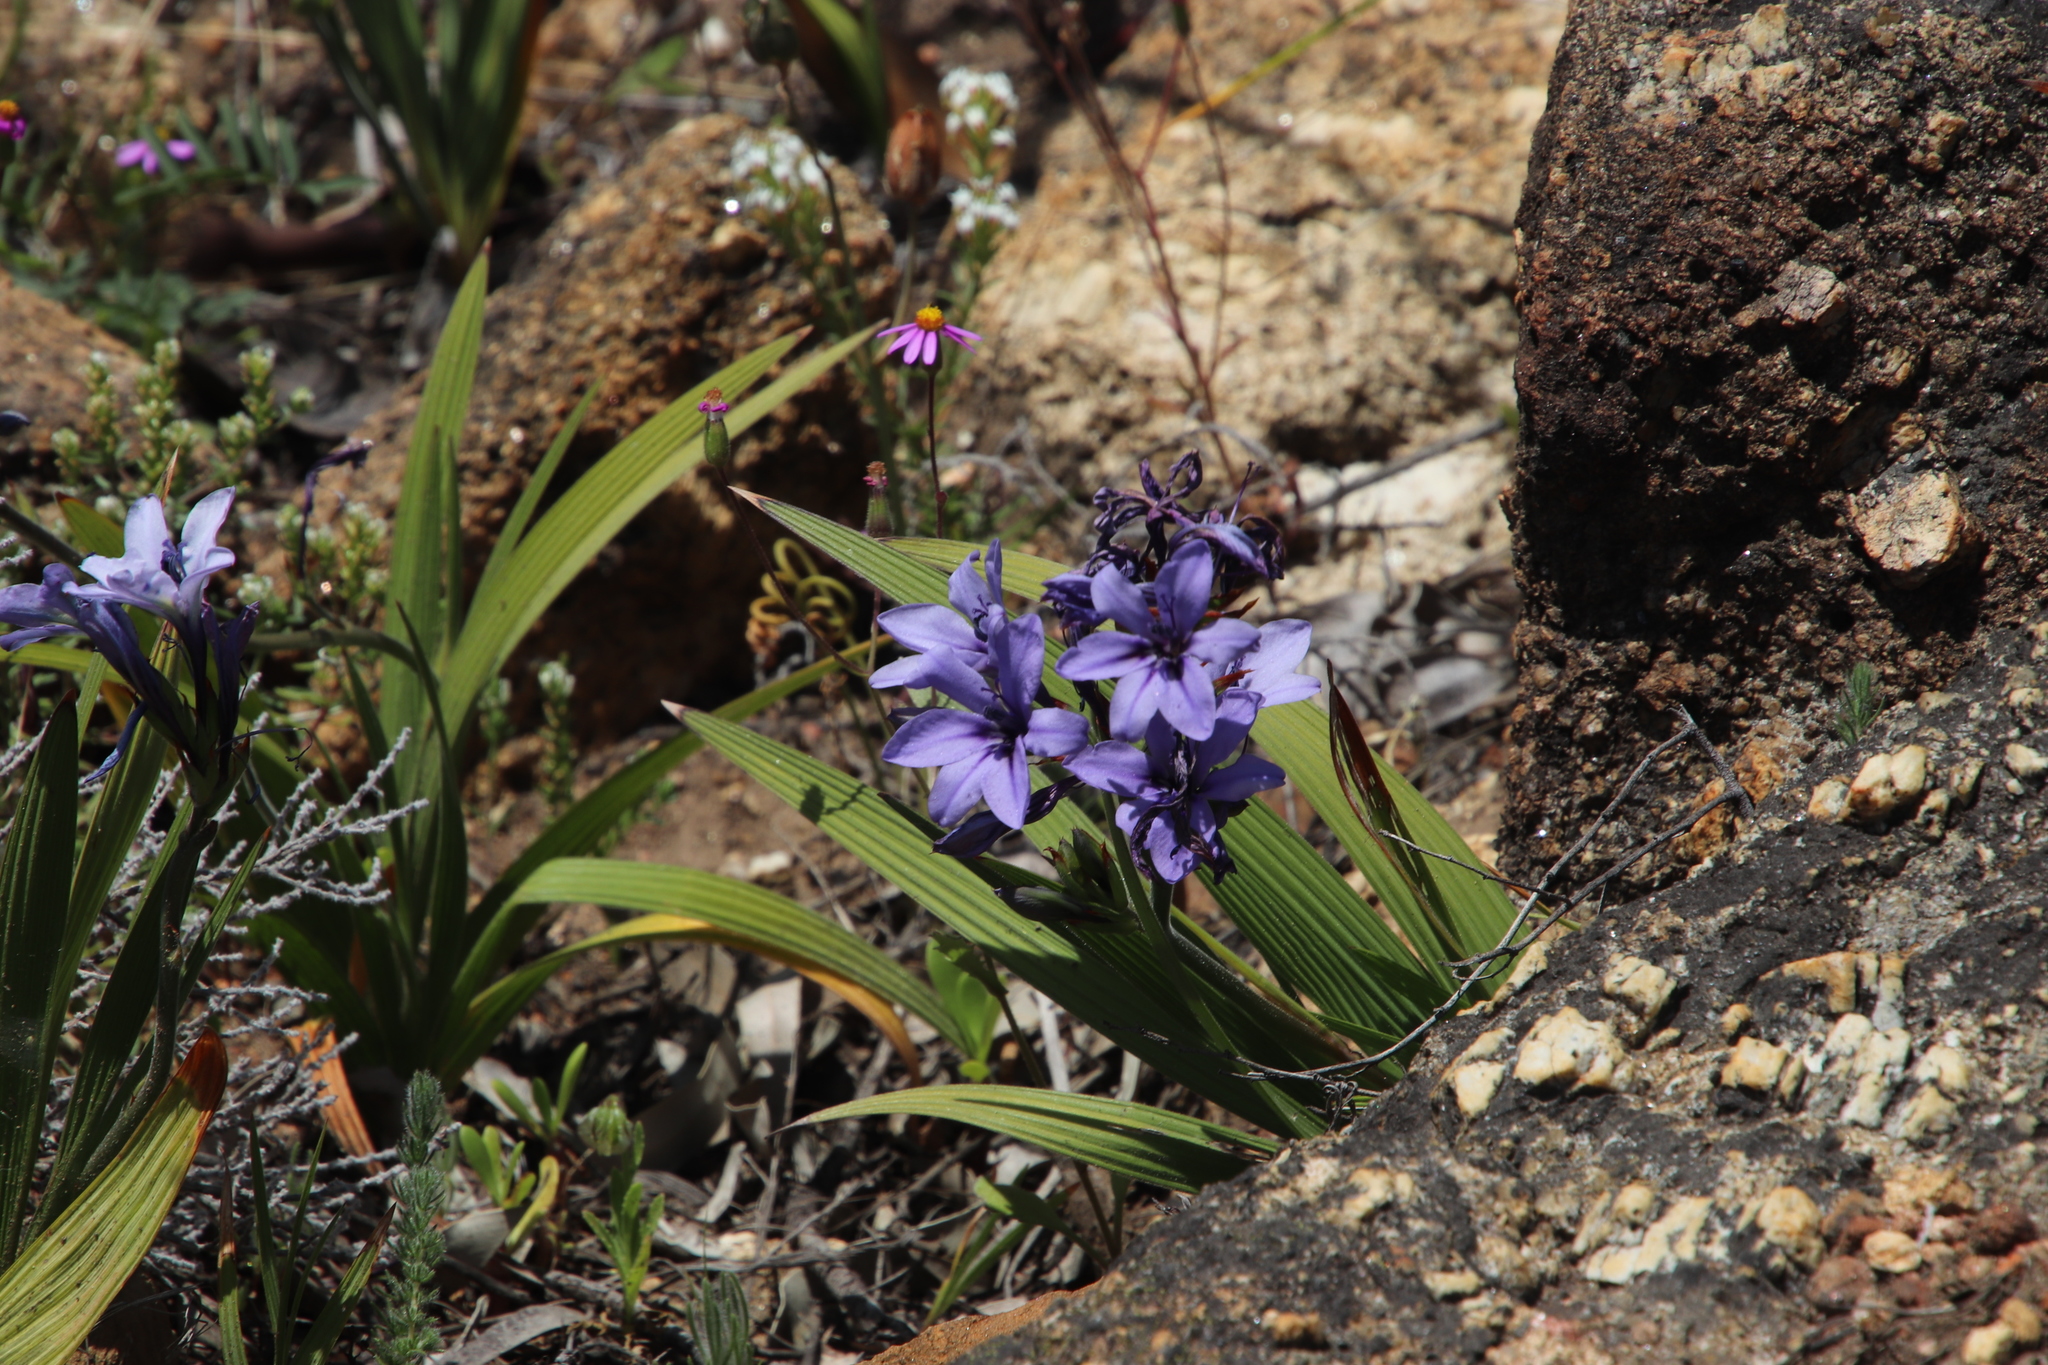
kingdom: Plantae
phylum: Tracheophyta
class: Liliopsida
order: Asparagales
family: Iridaceae
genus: Babiana
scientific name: Babiana fragrans
